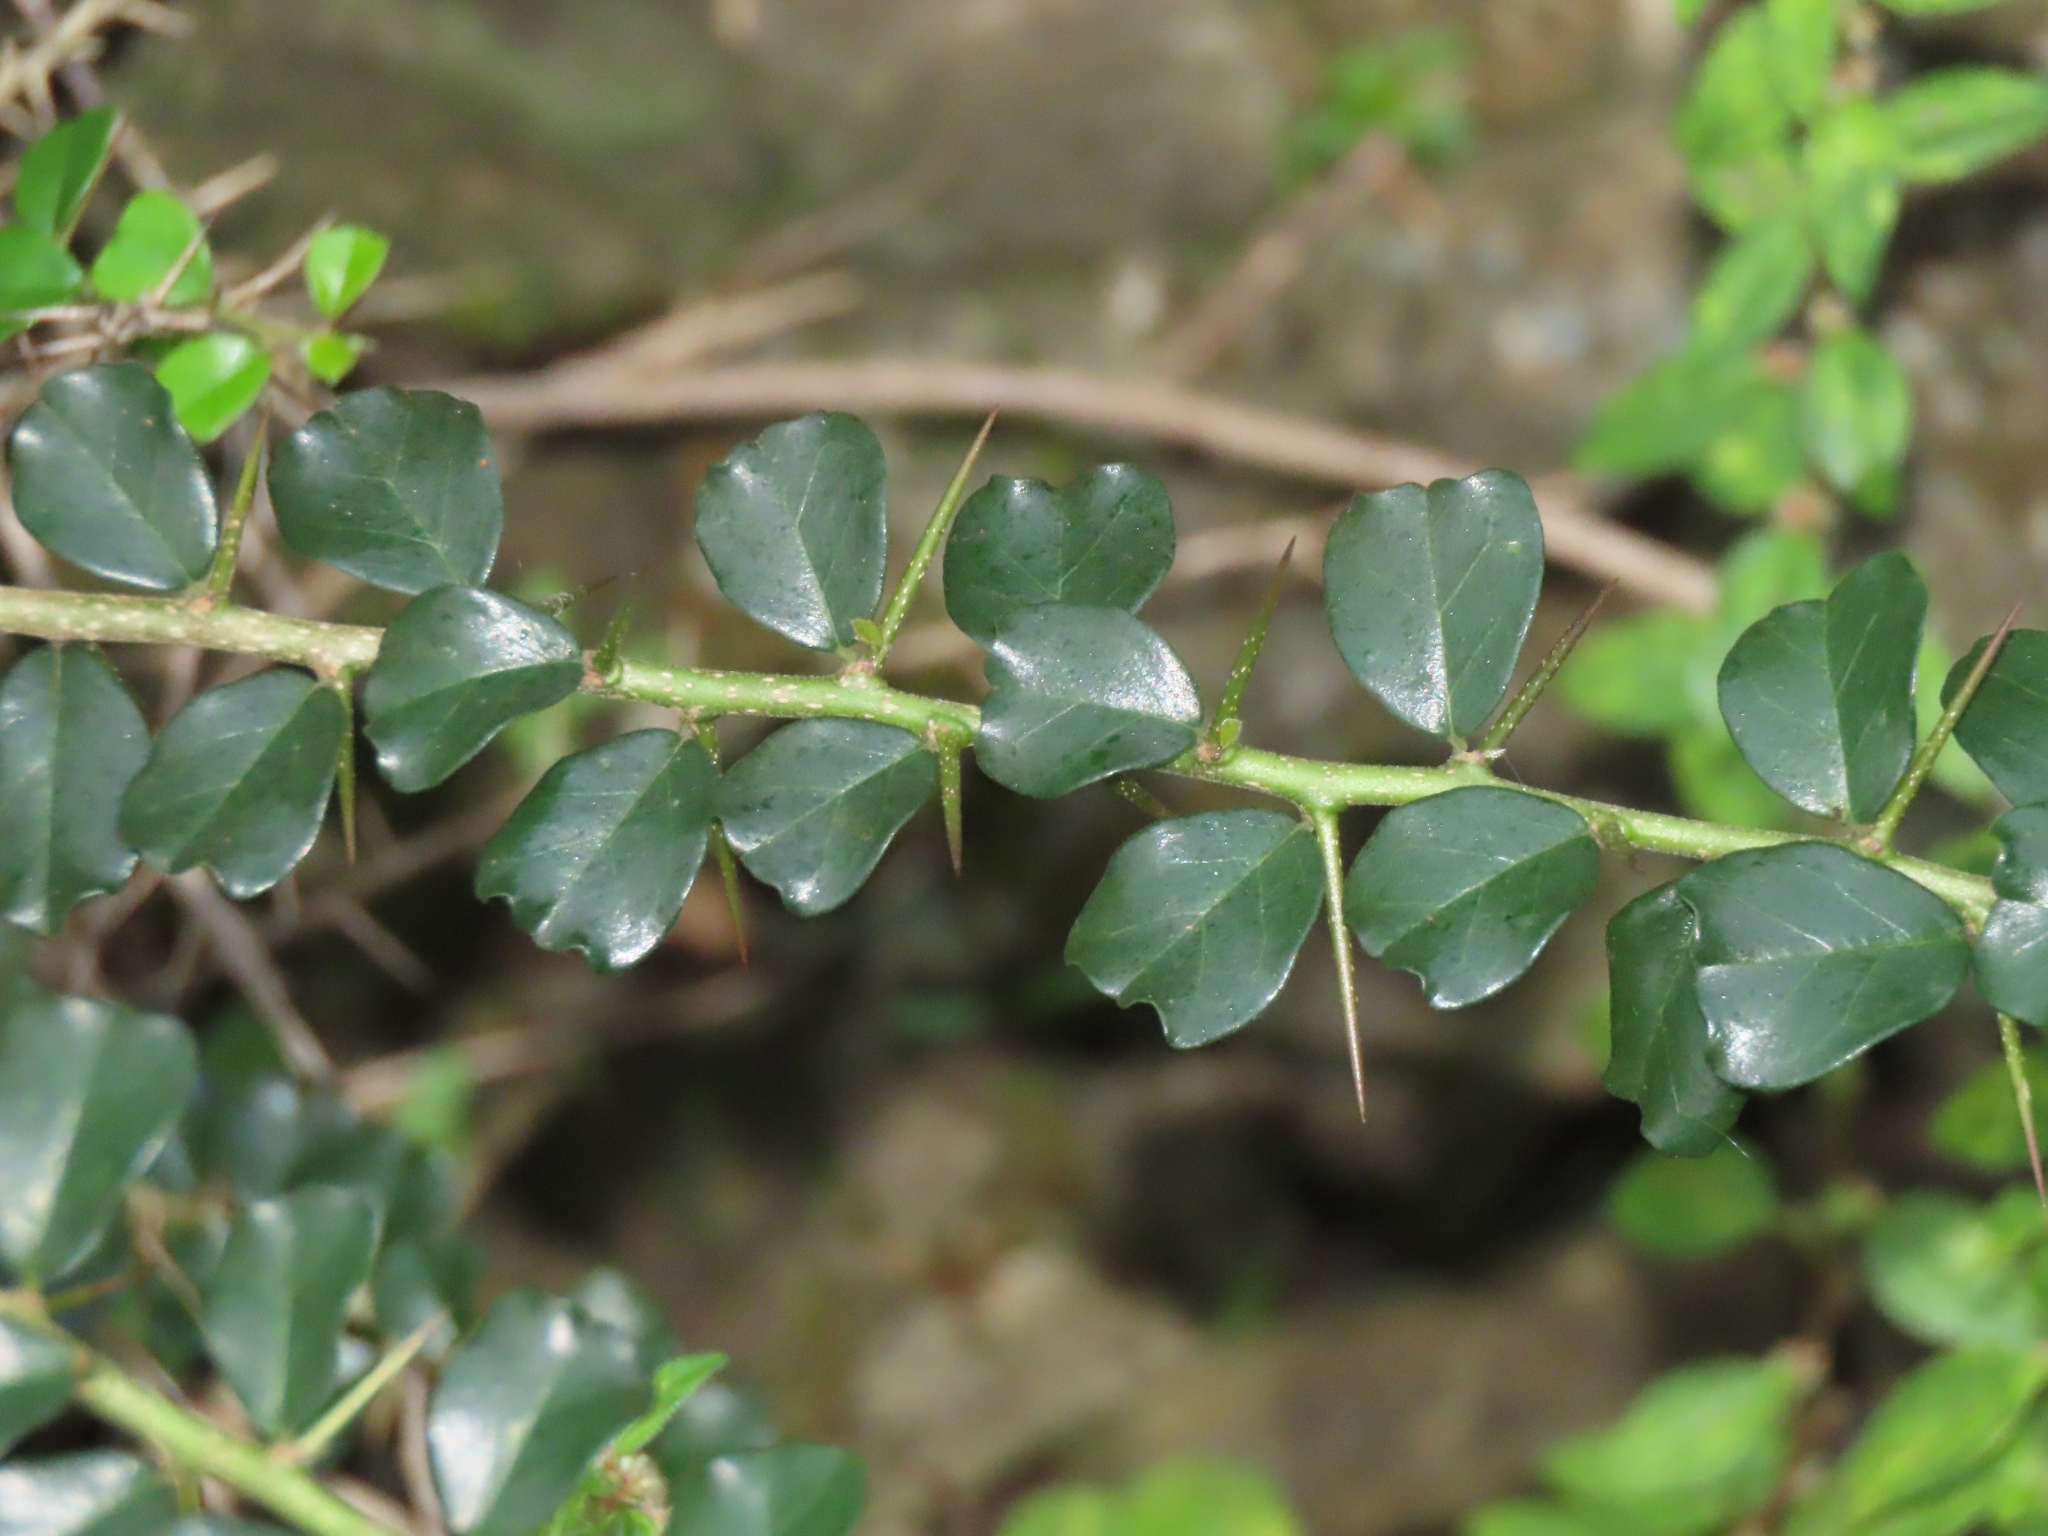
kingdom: Plantae
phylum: Tracheophyta
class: Magnoliopsida
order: Rosales
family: Moraceae
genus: Maclura
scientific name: Maclura cochinchinensis
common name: Cockspurthorn
